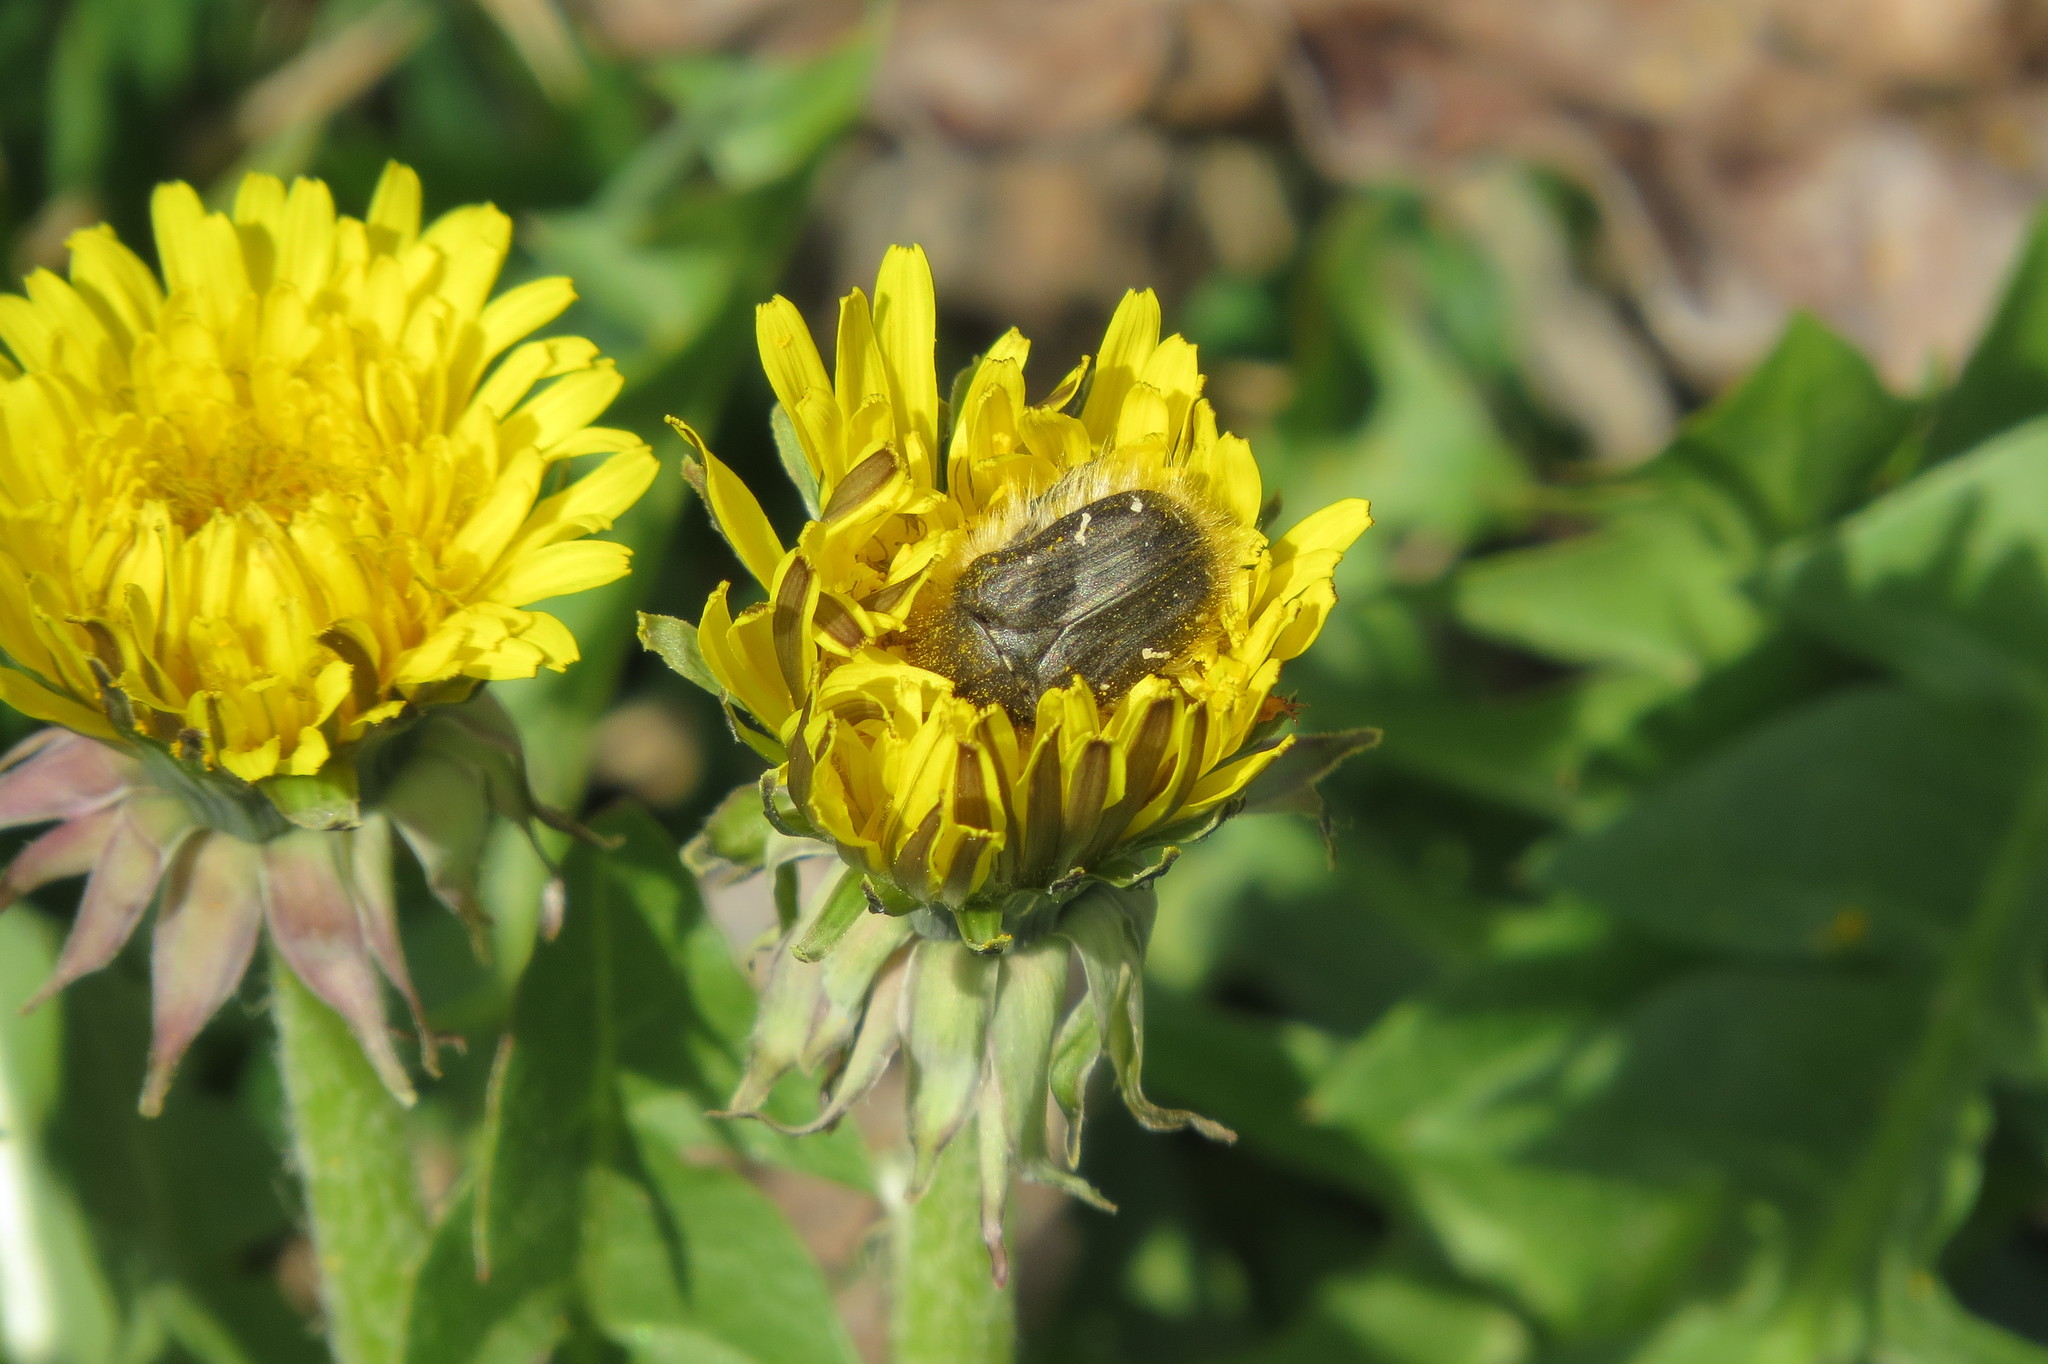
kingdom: Animalia
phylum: Arthropoda
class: Insecta
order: Coleoptera
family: Scarabaeidae
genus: Tropinota
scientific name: Tropinota hirta
